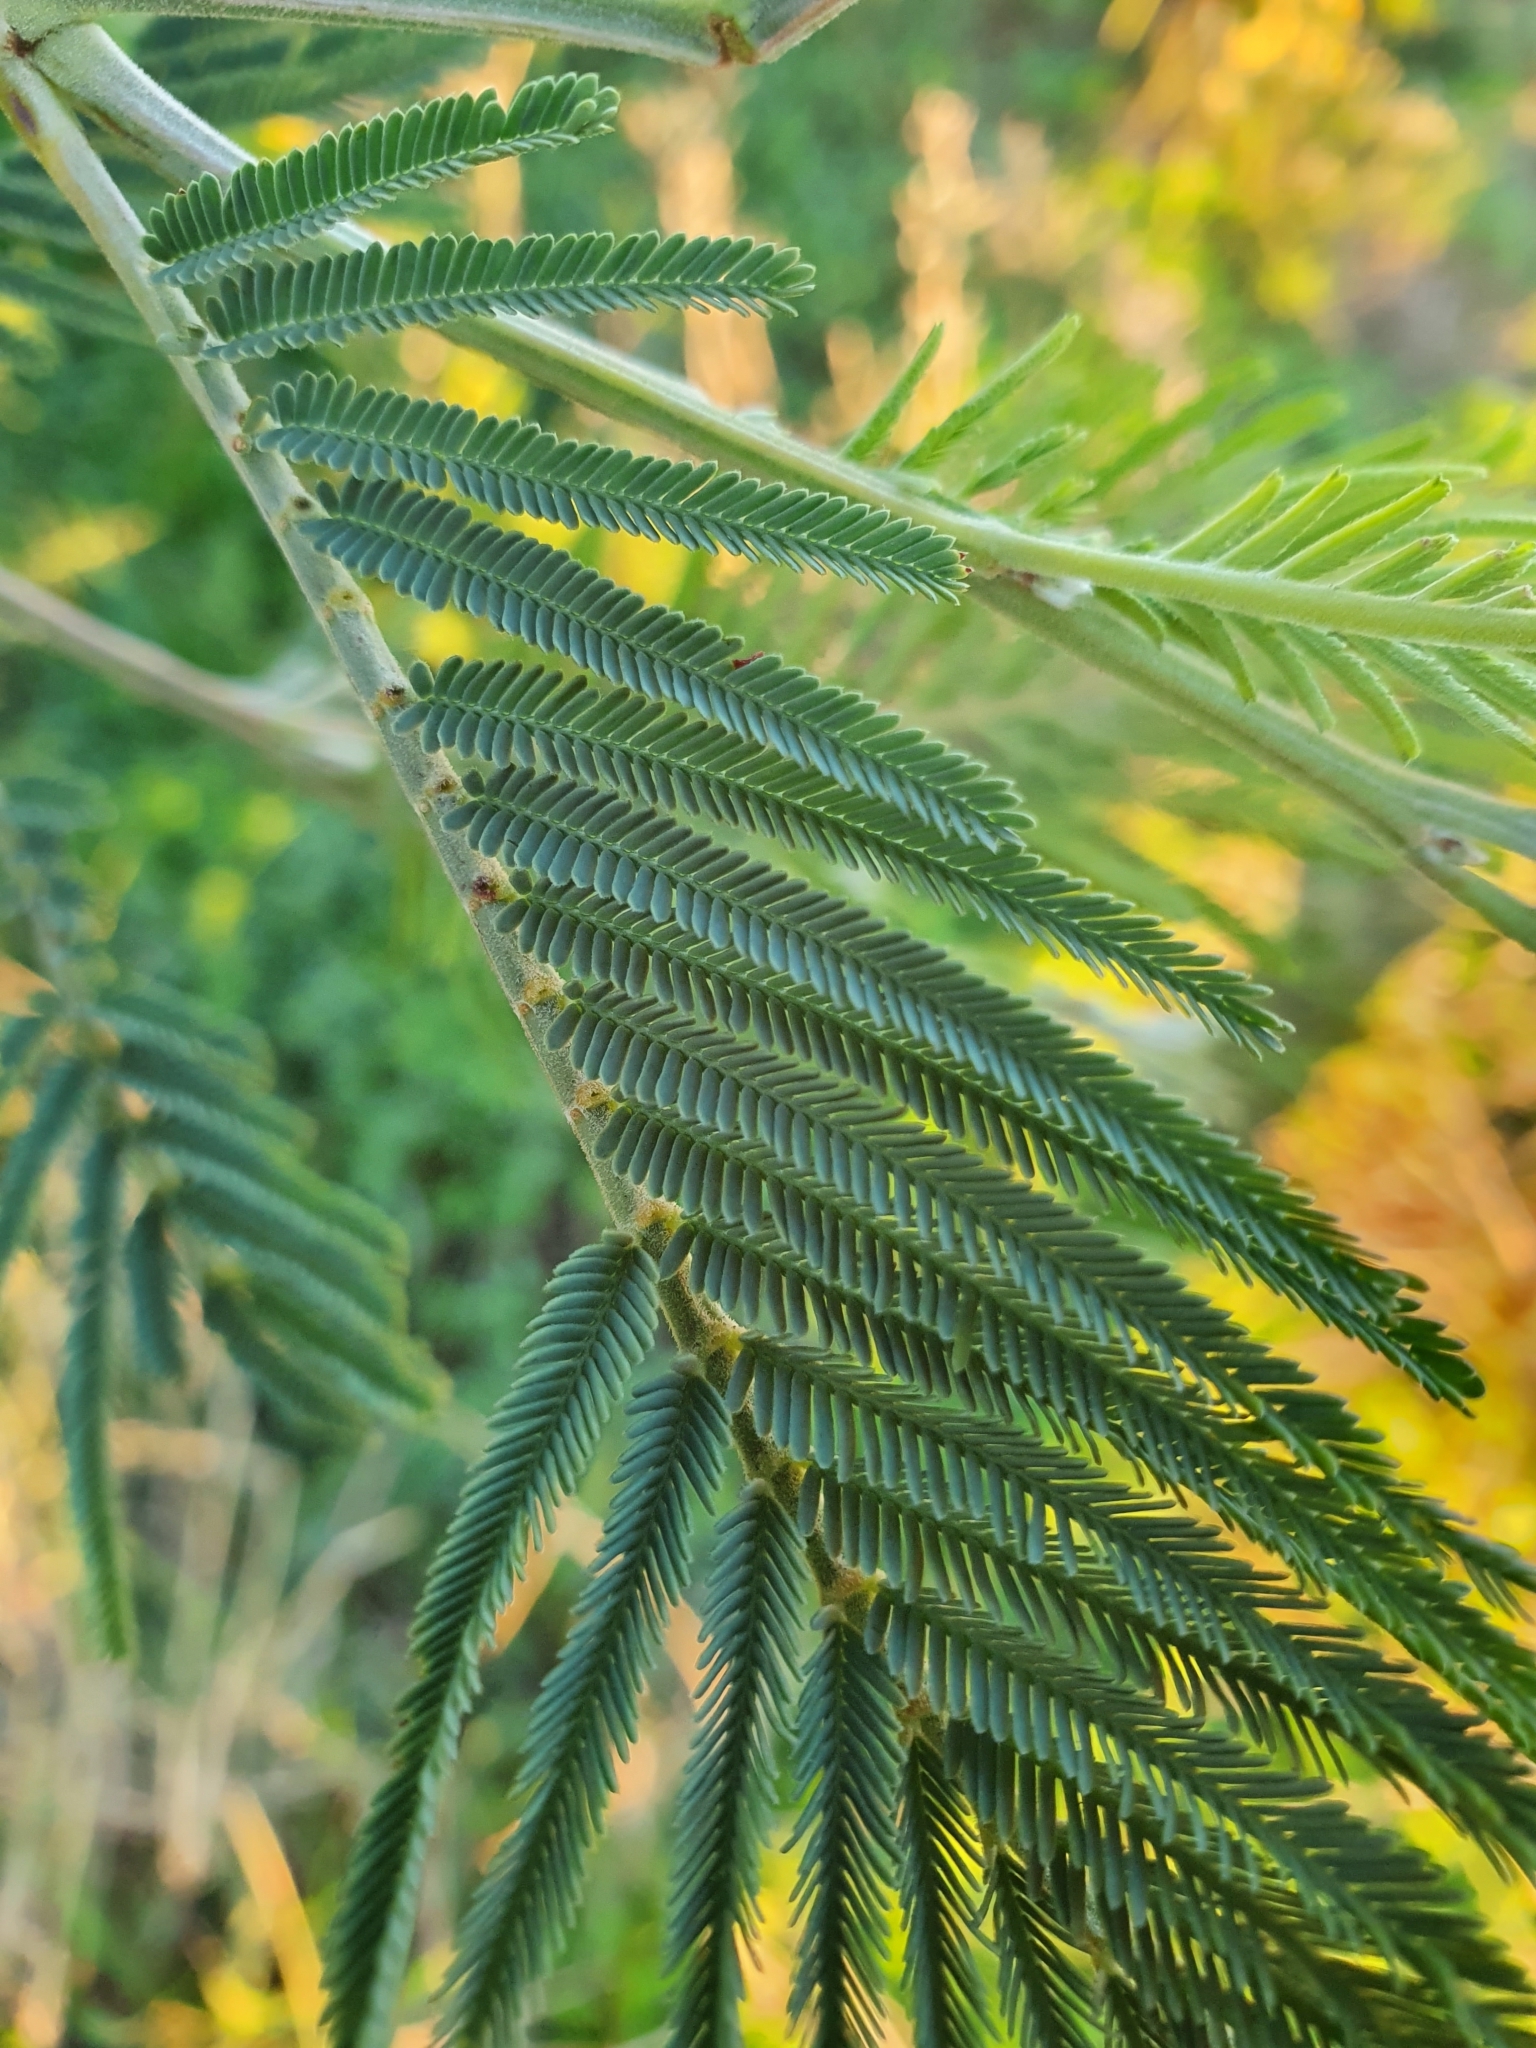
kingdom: Plantae
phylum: Tracheophyta
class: Magnoliopsida
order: Fabales
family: Fabaceae
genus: Acacia
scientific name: Acacia dealbata
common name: Silver wattle
